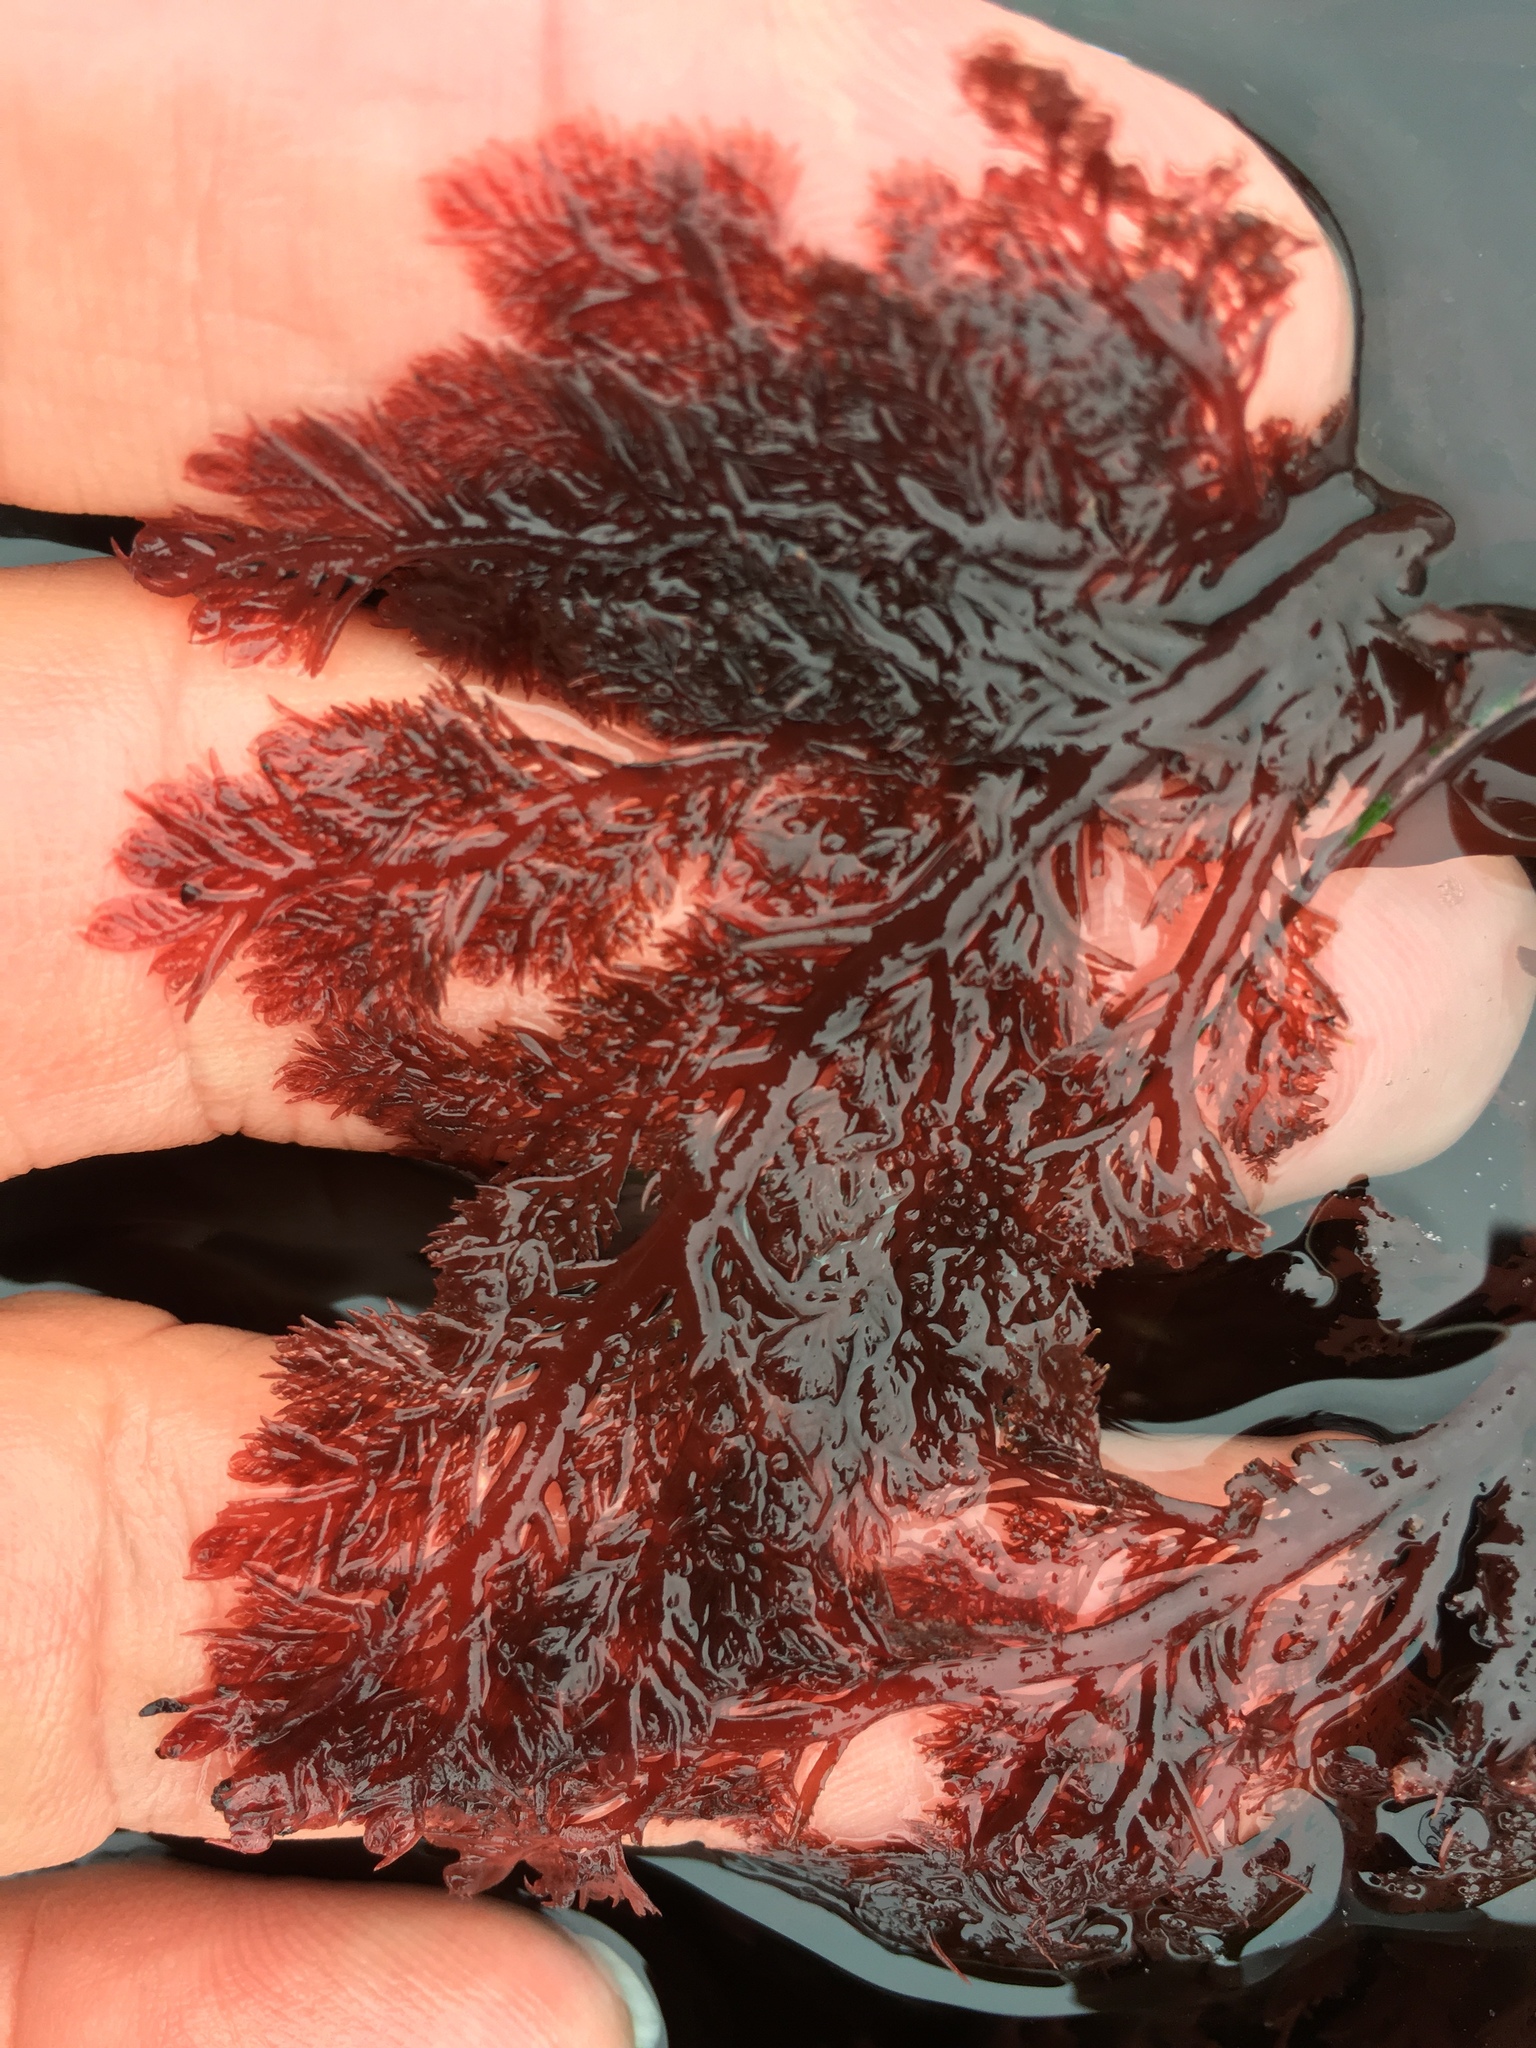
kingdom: Plantae
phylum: Rhodophyta
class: Florideophyceae
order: Plocamiales
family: Plocamiaceae
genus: Plocamium
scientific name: Plocamium cartilagineum
